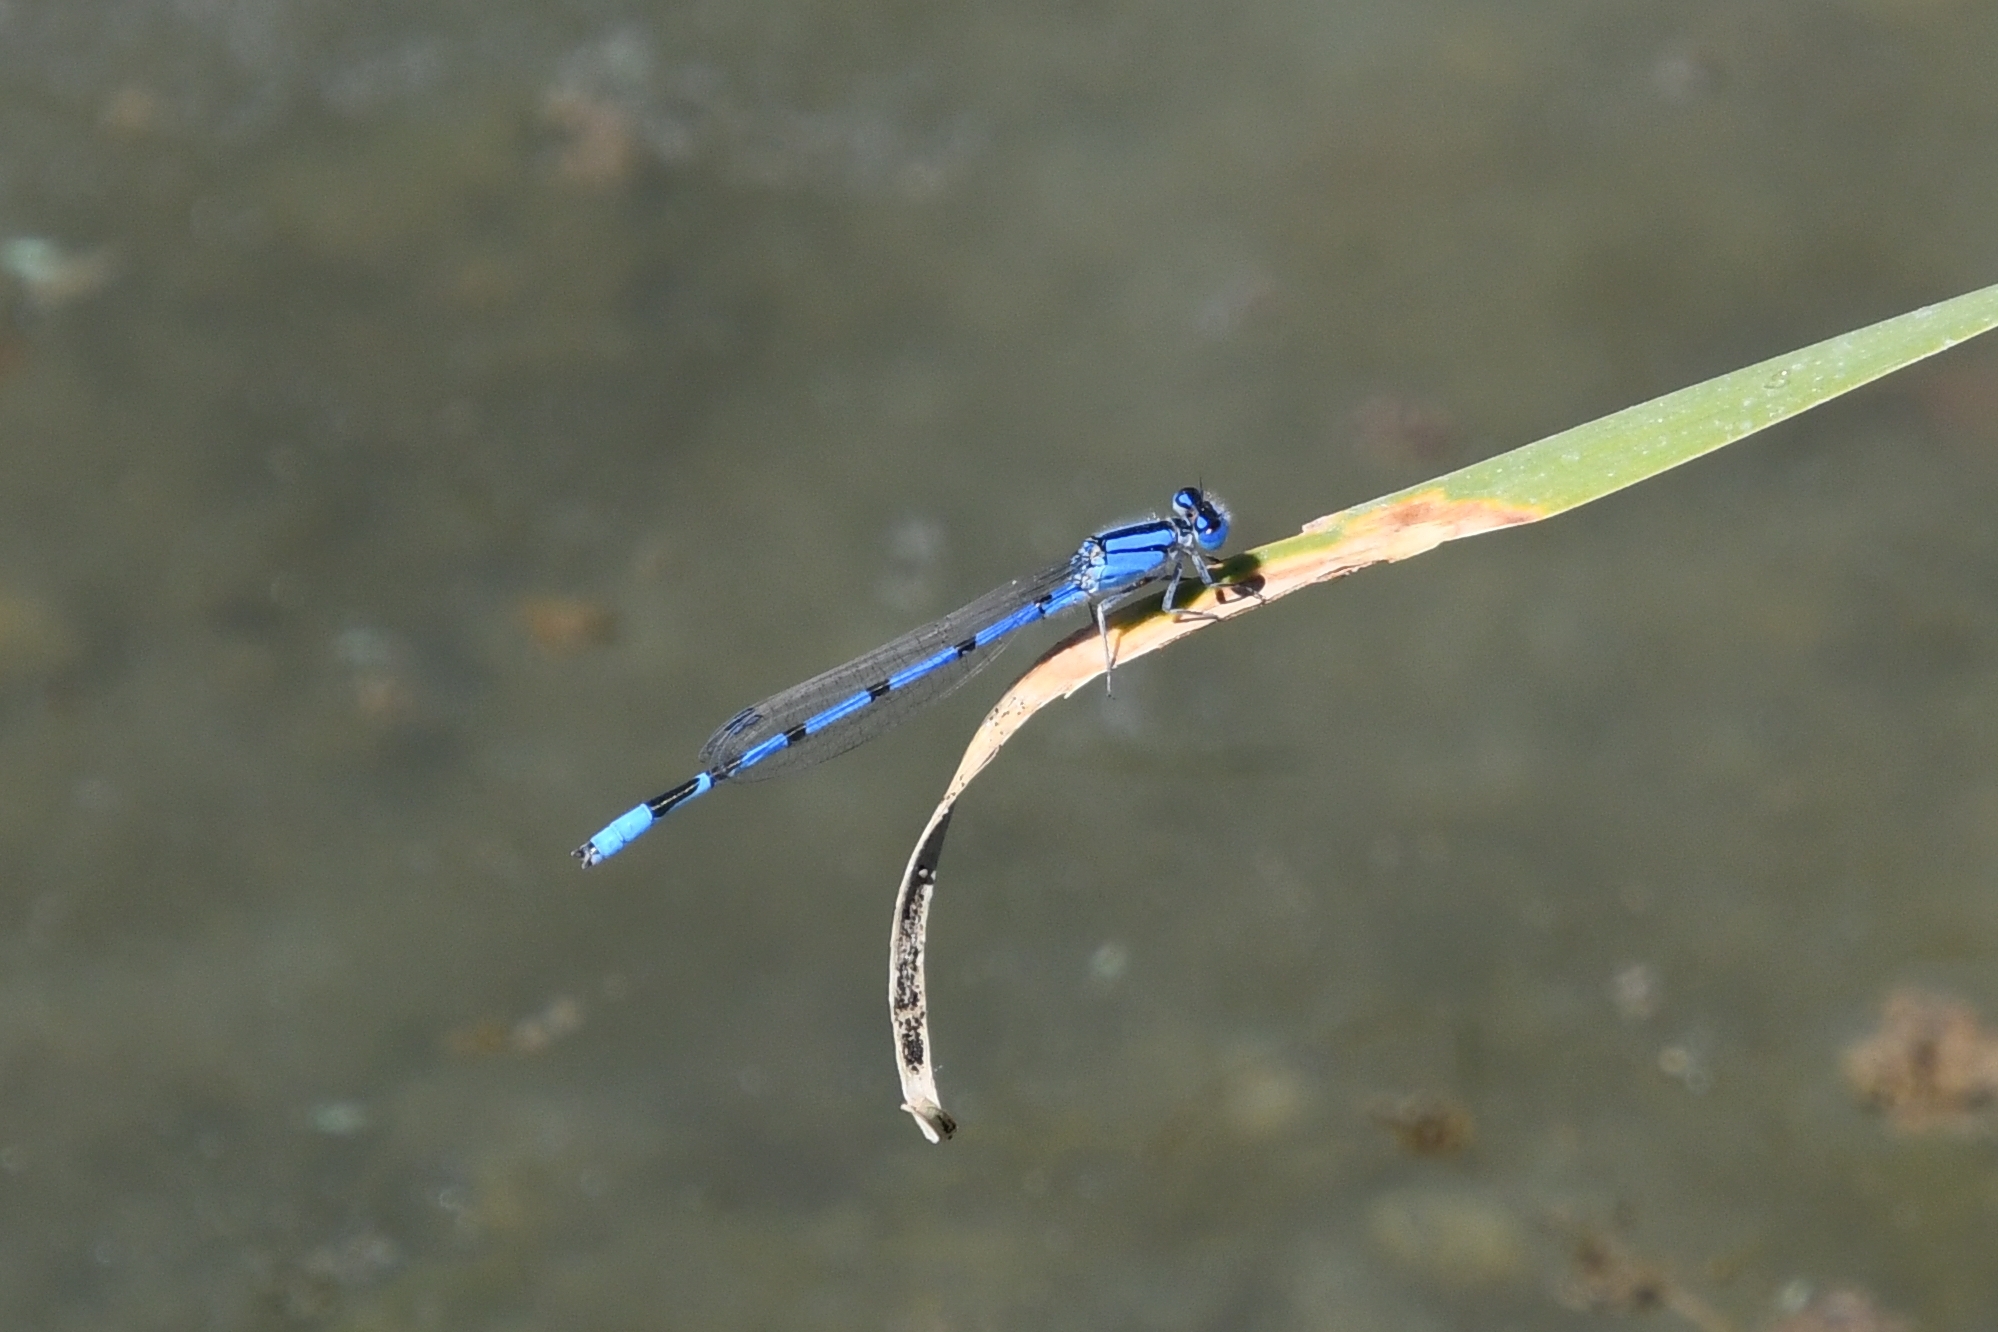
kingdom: Animalia
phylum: Arthropoda
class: Insecta
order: Odonata
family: Coenagrionidae
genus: Enallagma
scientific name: Enallagma civile
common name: Damselfly
